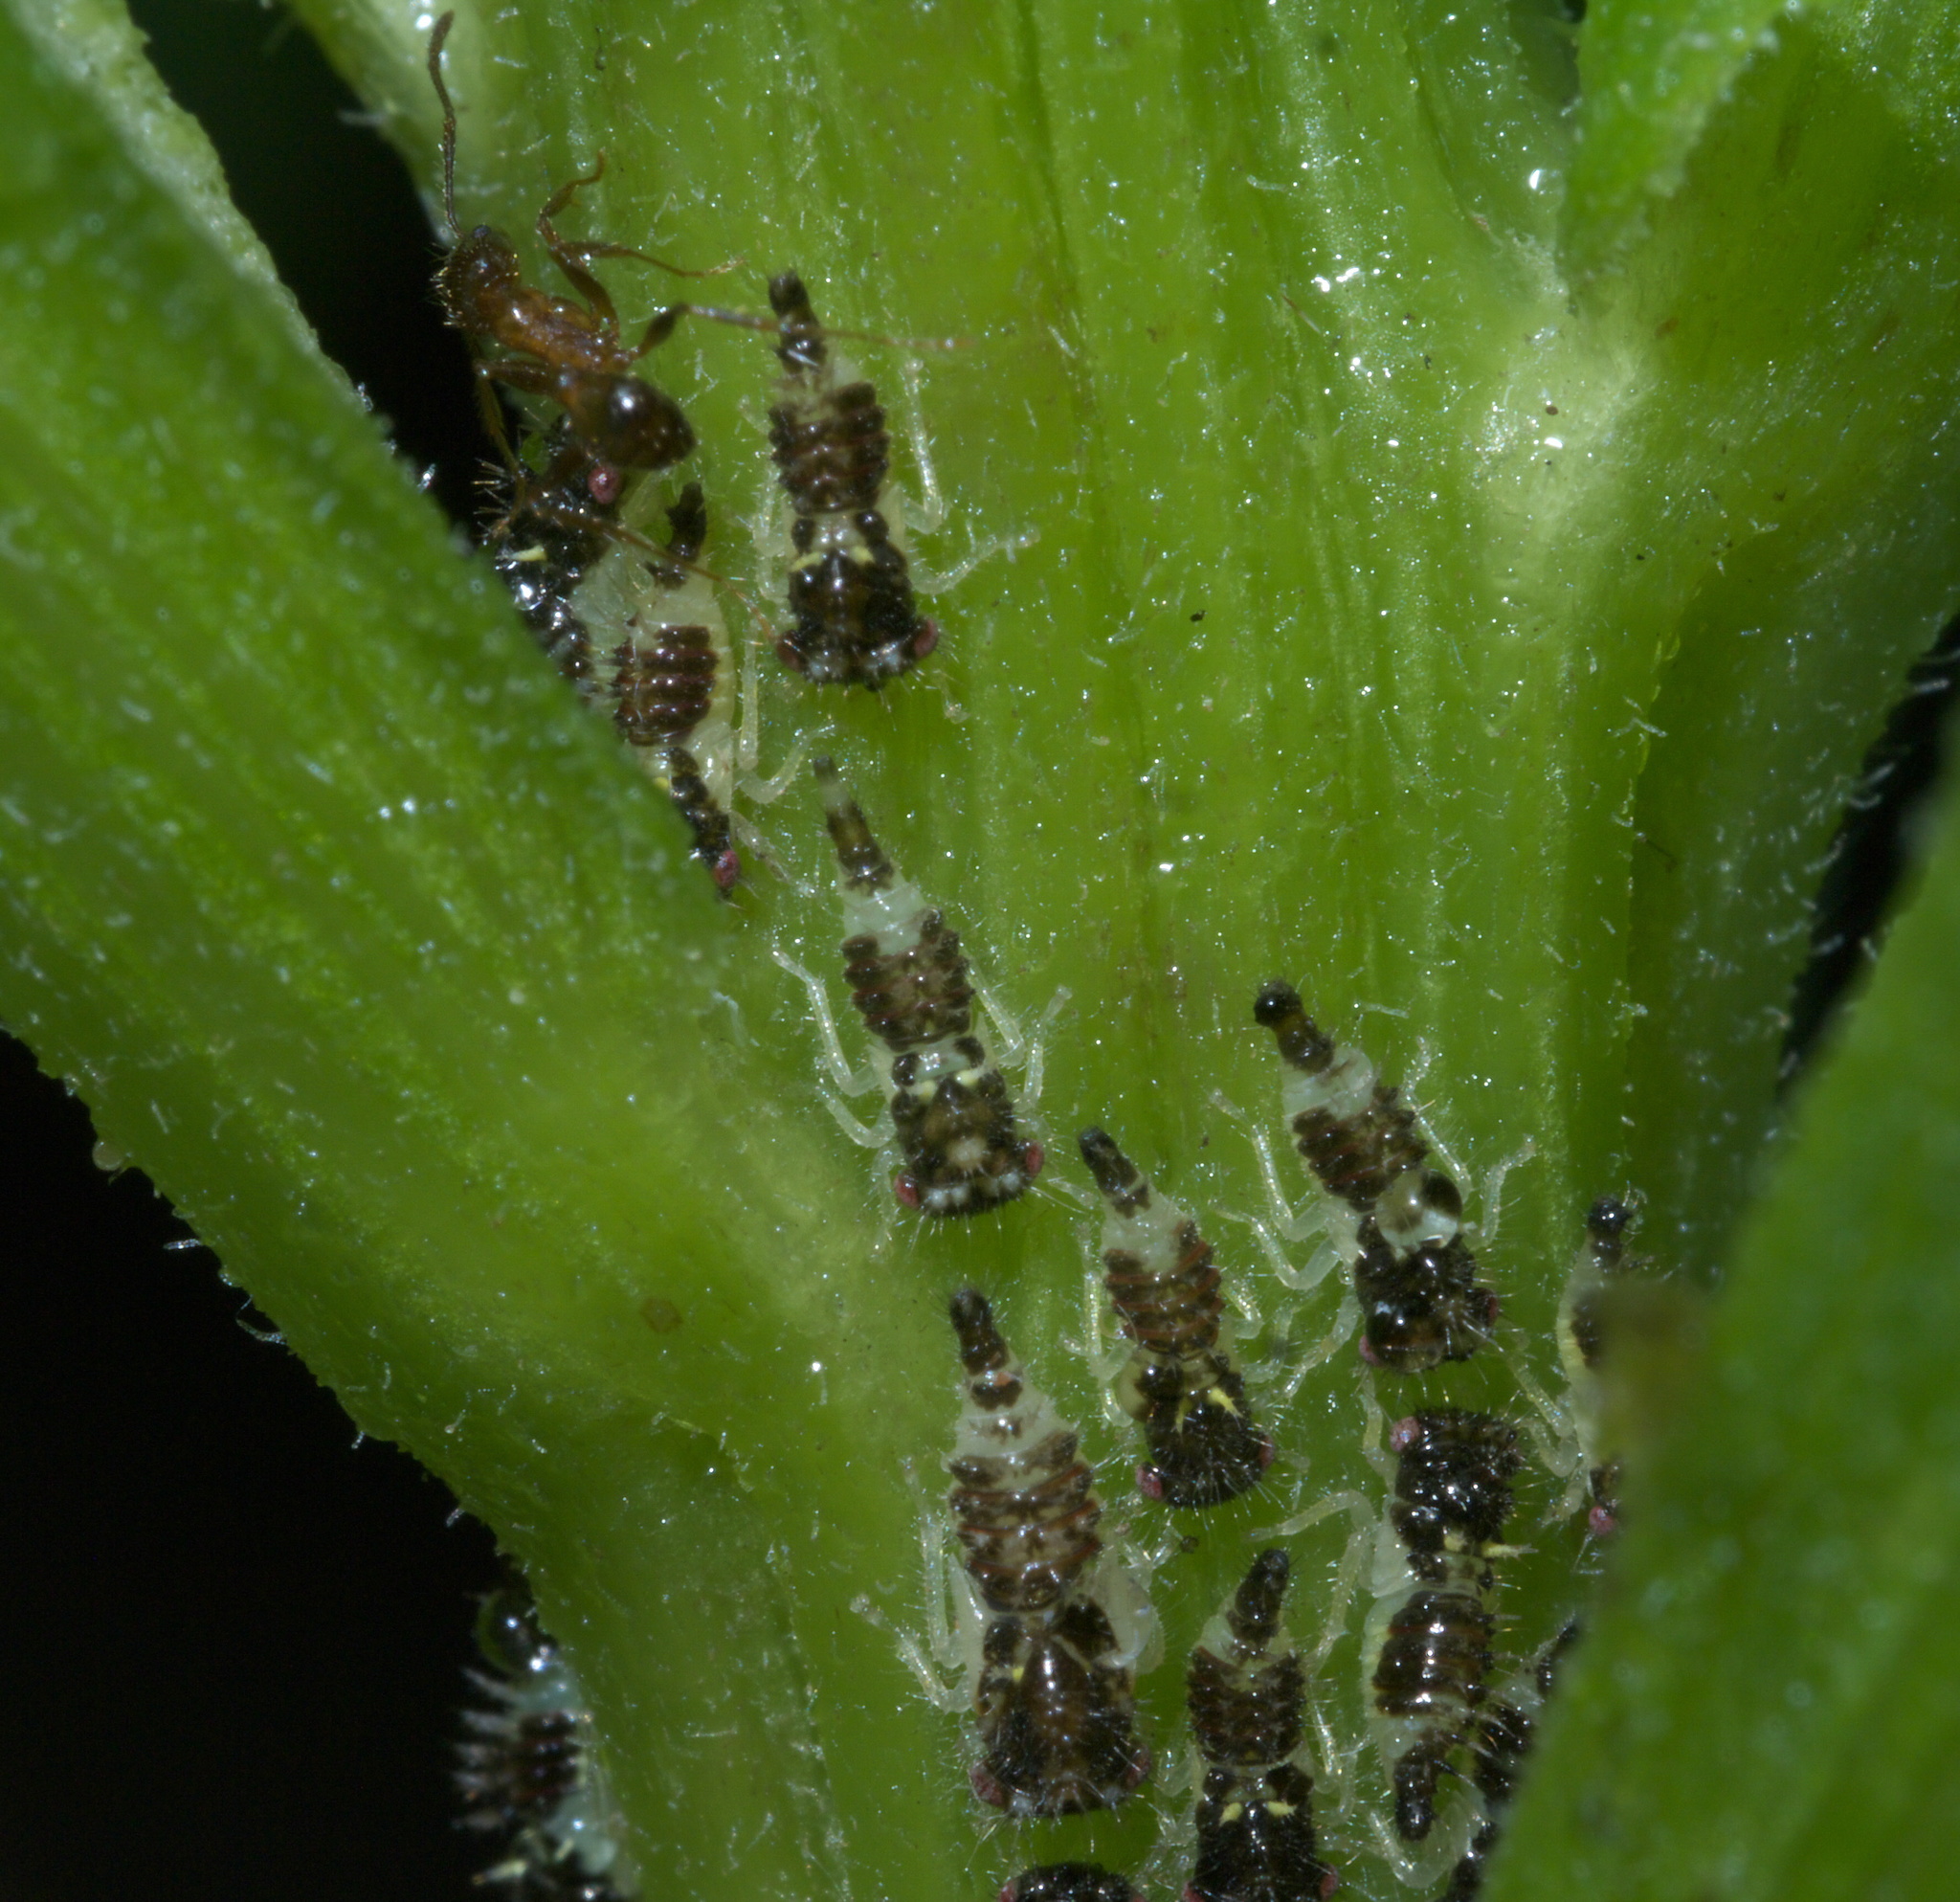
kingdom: Animalia
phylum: Arthropoda
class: Insecta
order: Hymenoptera
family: Formicidae
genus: Pheidole
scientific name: Pheidole dentata
